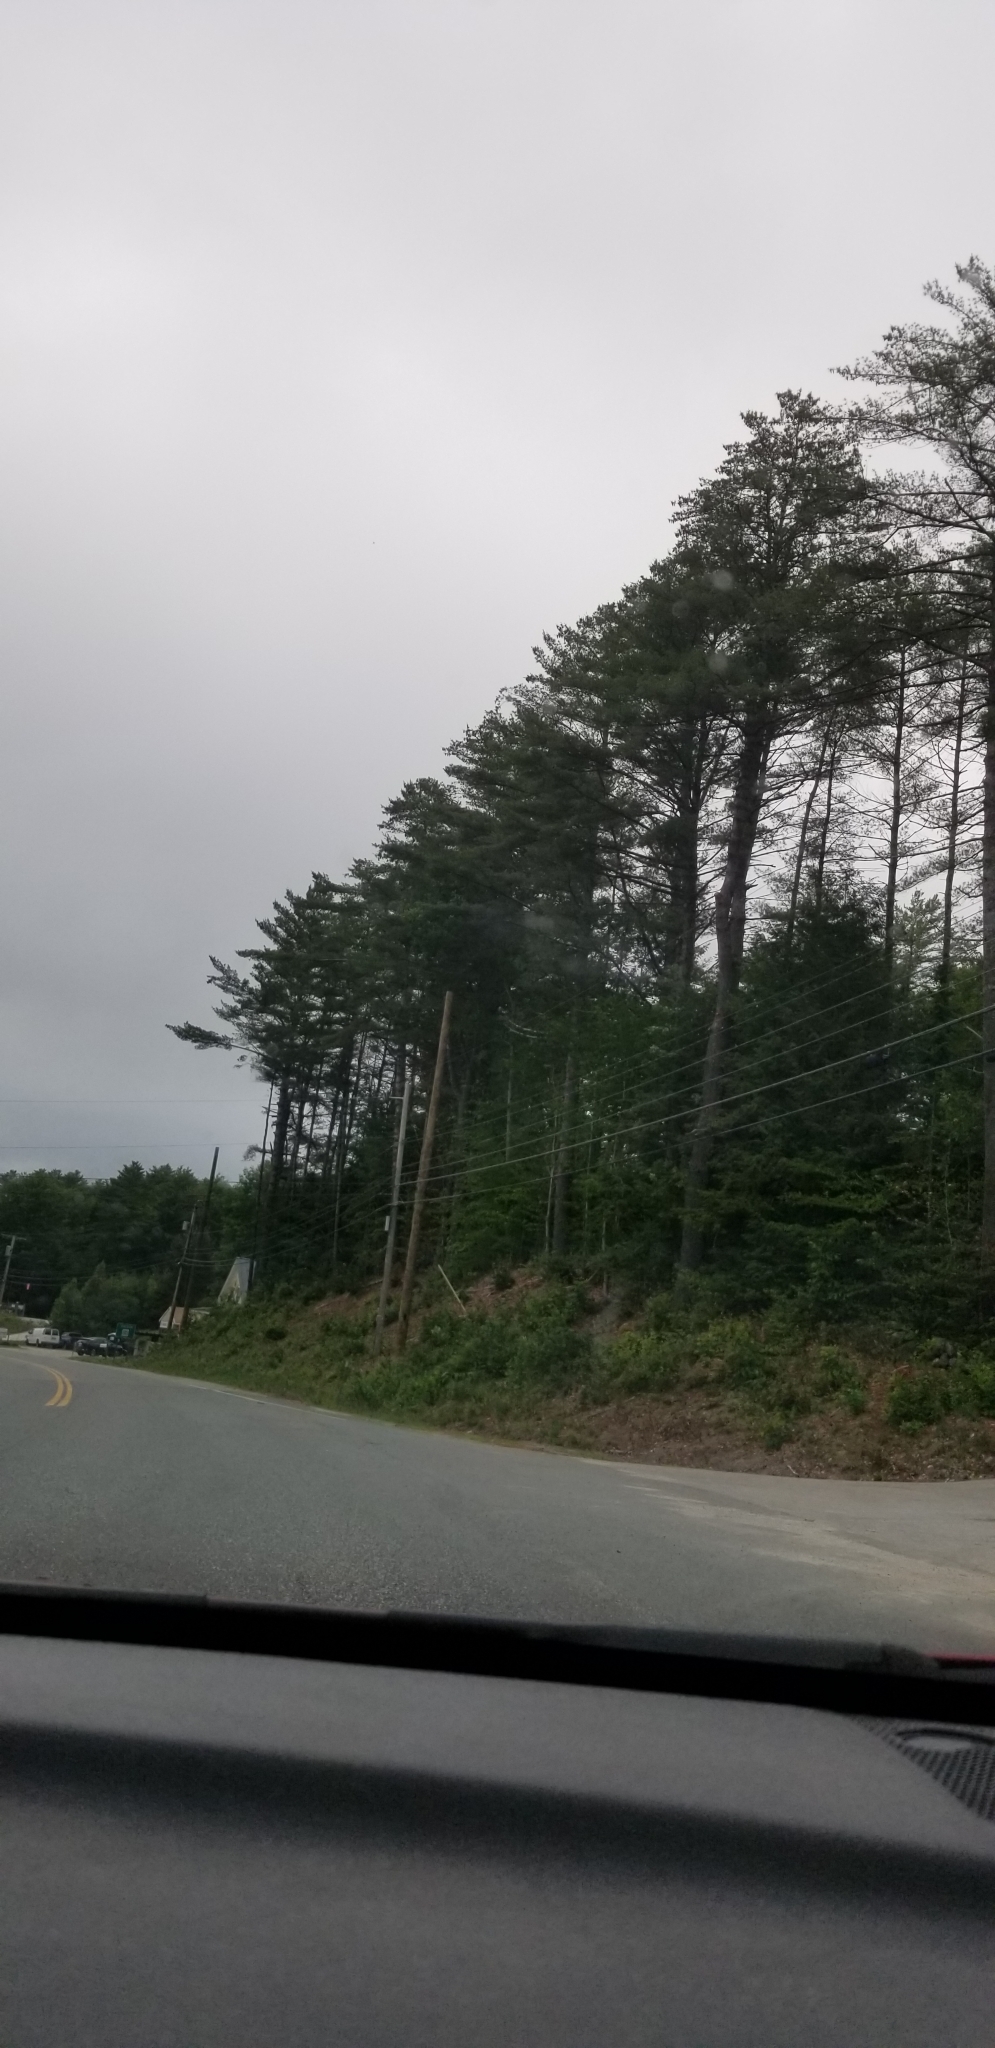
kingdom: Plantae
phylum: Tracheophyta
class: Pinopsida
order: Pinales
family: Pinaceae
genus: Pinus
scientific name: Pinus strobus
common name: Weymouth pine
